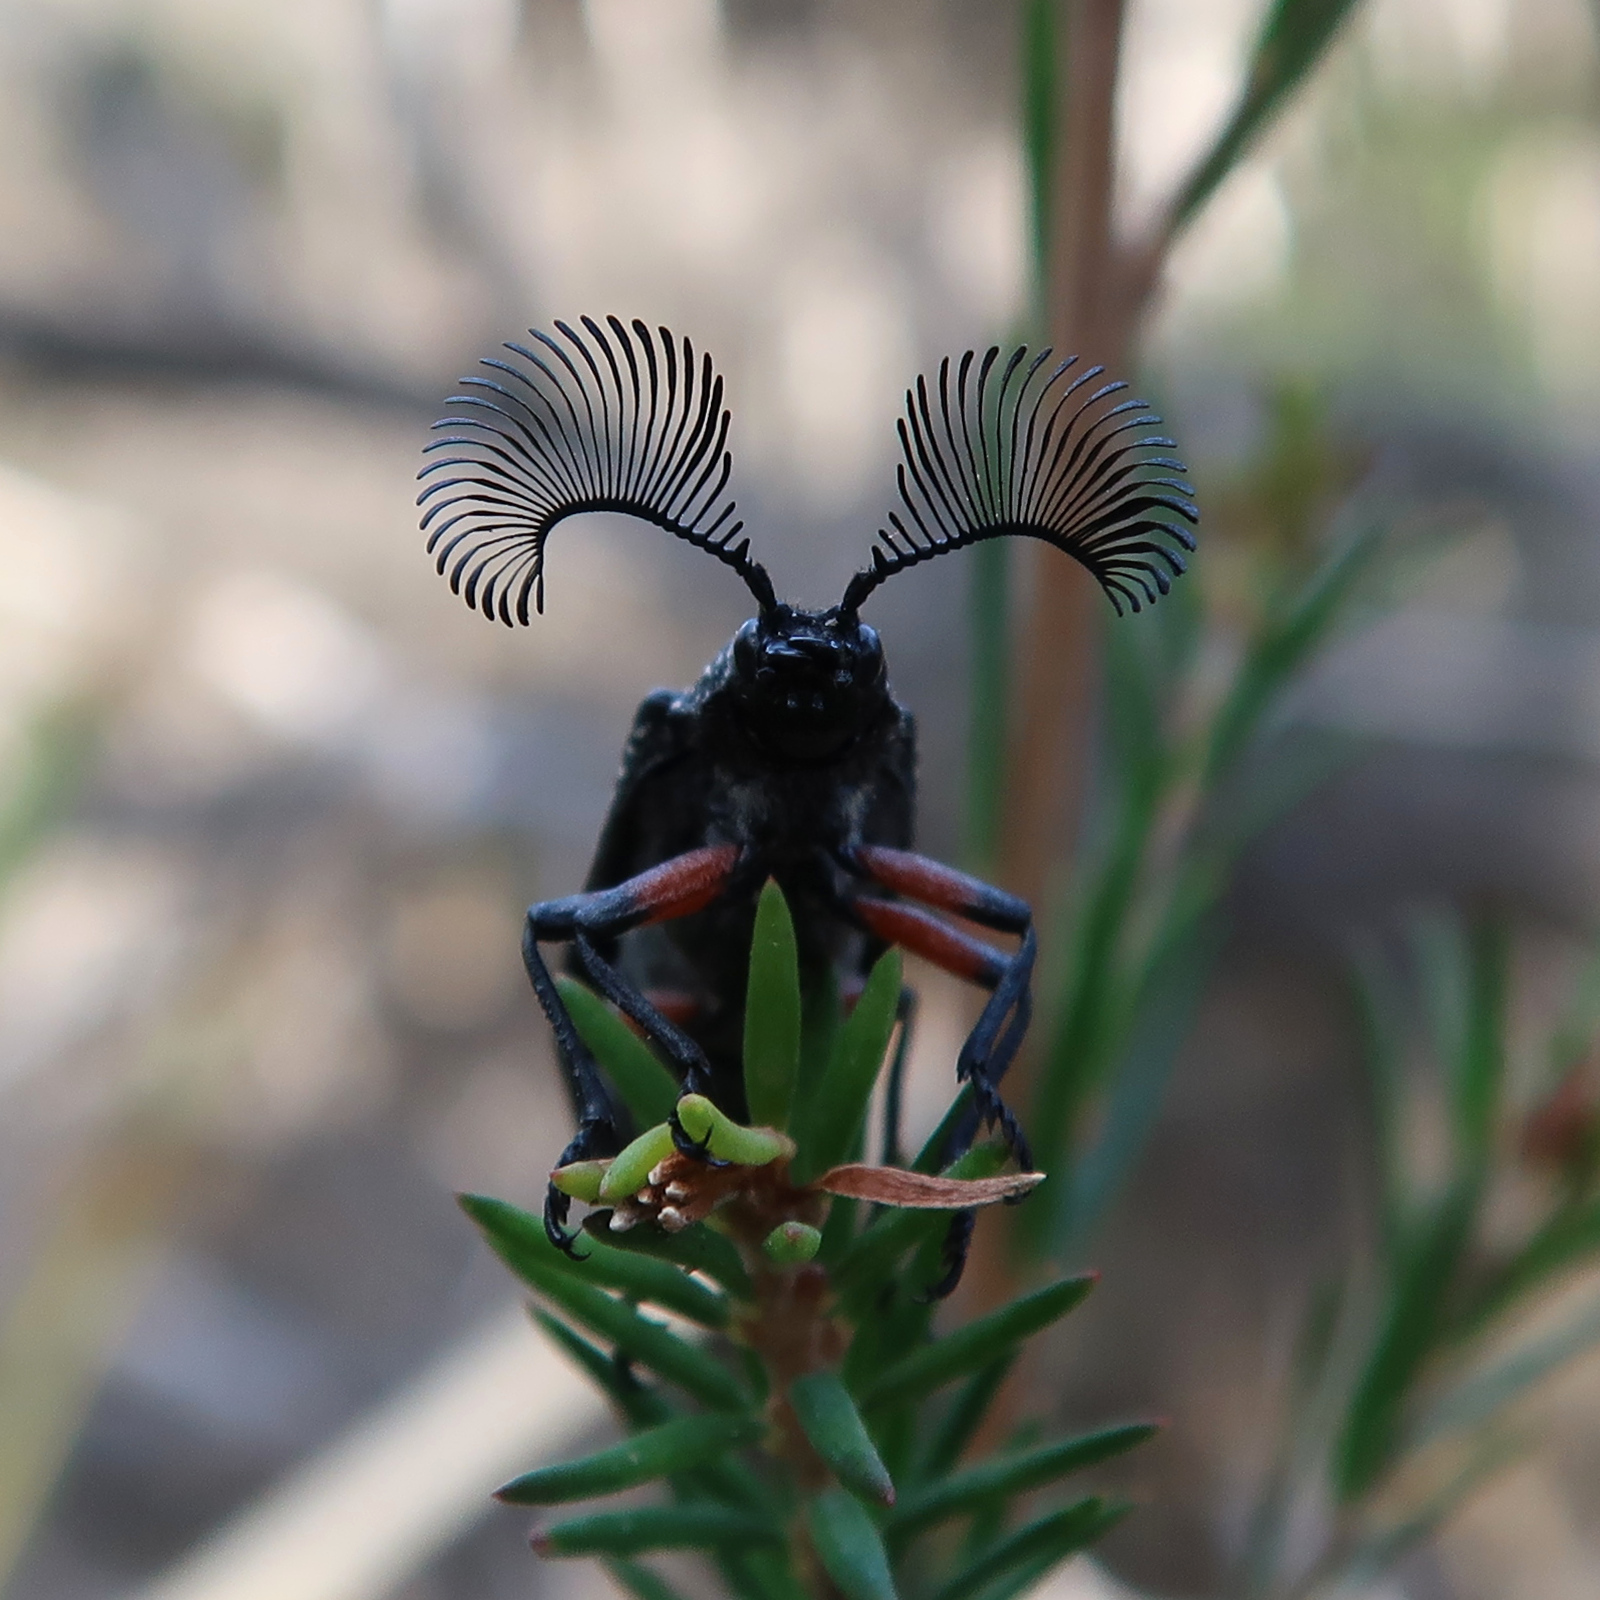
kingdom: Animalia
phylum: Arthropoda
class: Insecta
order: Coleoptera
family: Rhipiceridae
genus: Rhipicera
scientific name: Rhipicera femorata
